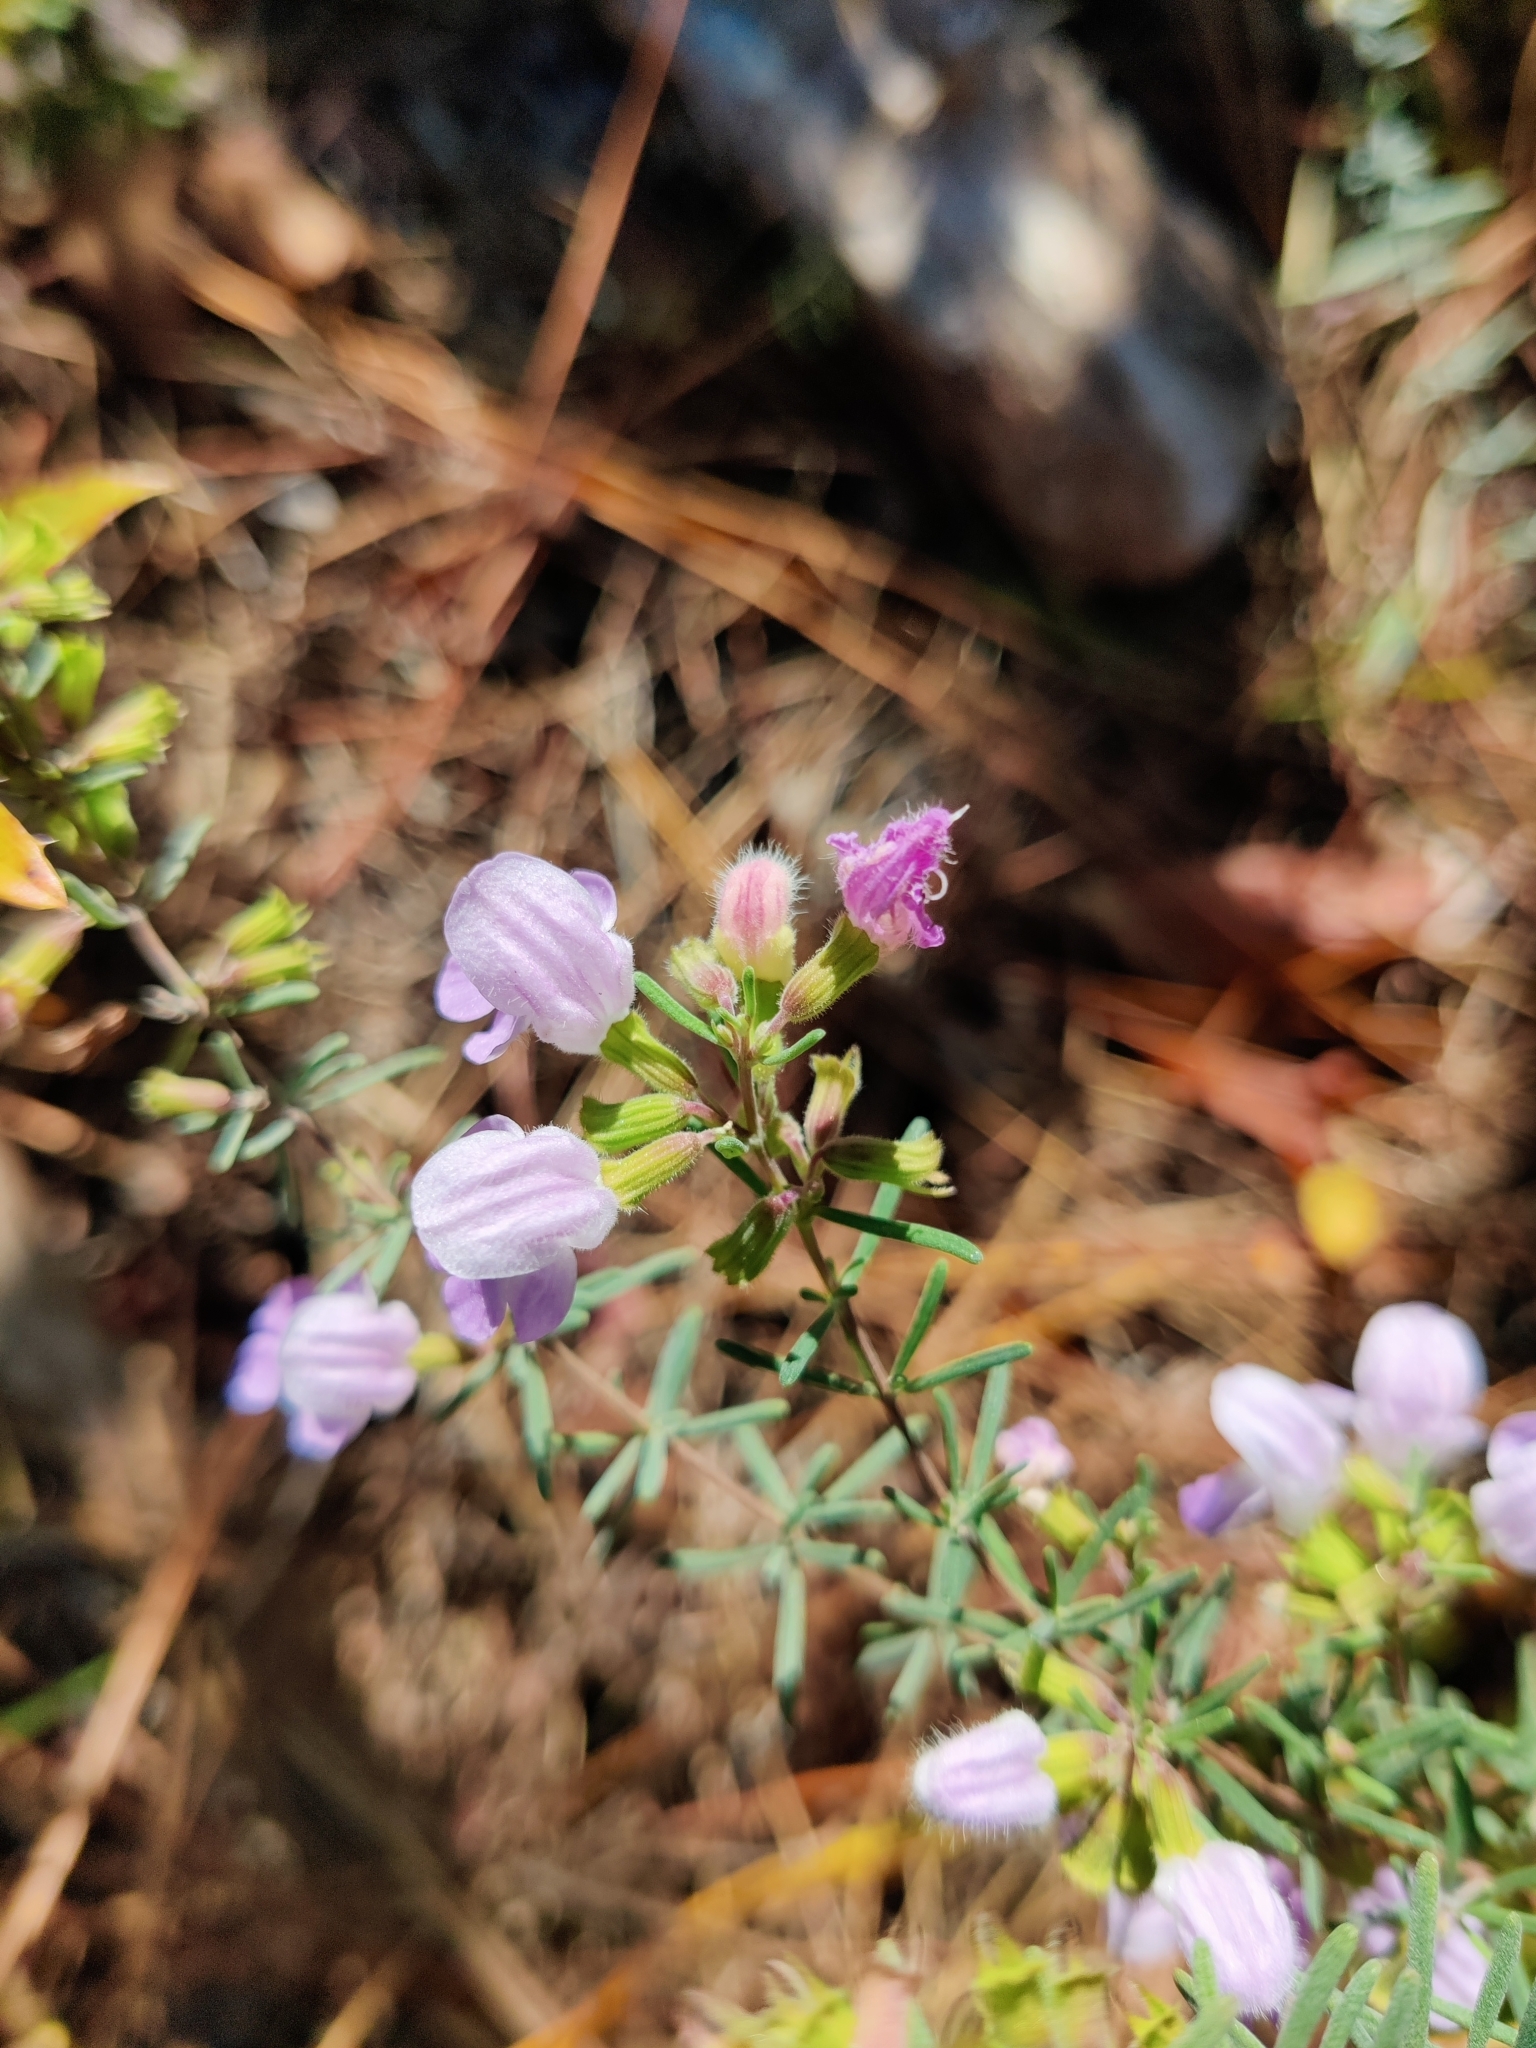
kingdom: Plantae
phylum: Tracheophyta
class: Magnoliopsida
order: Lamiales
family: Lamiaceae
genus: Conradina
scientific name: Conradina canescens
